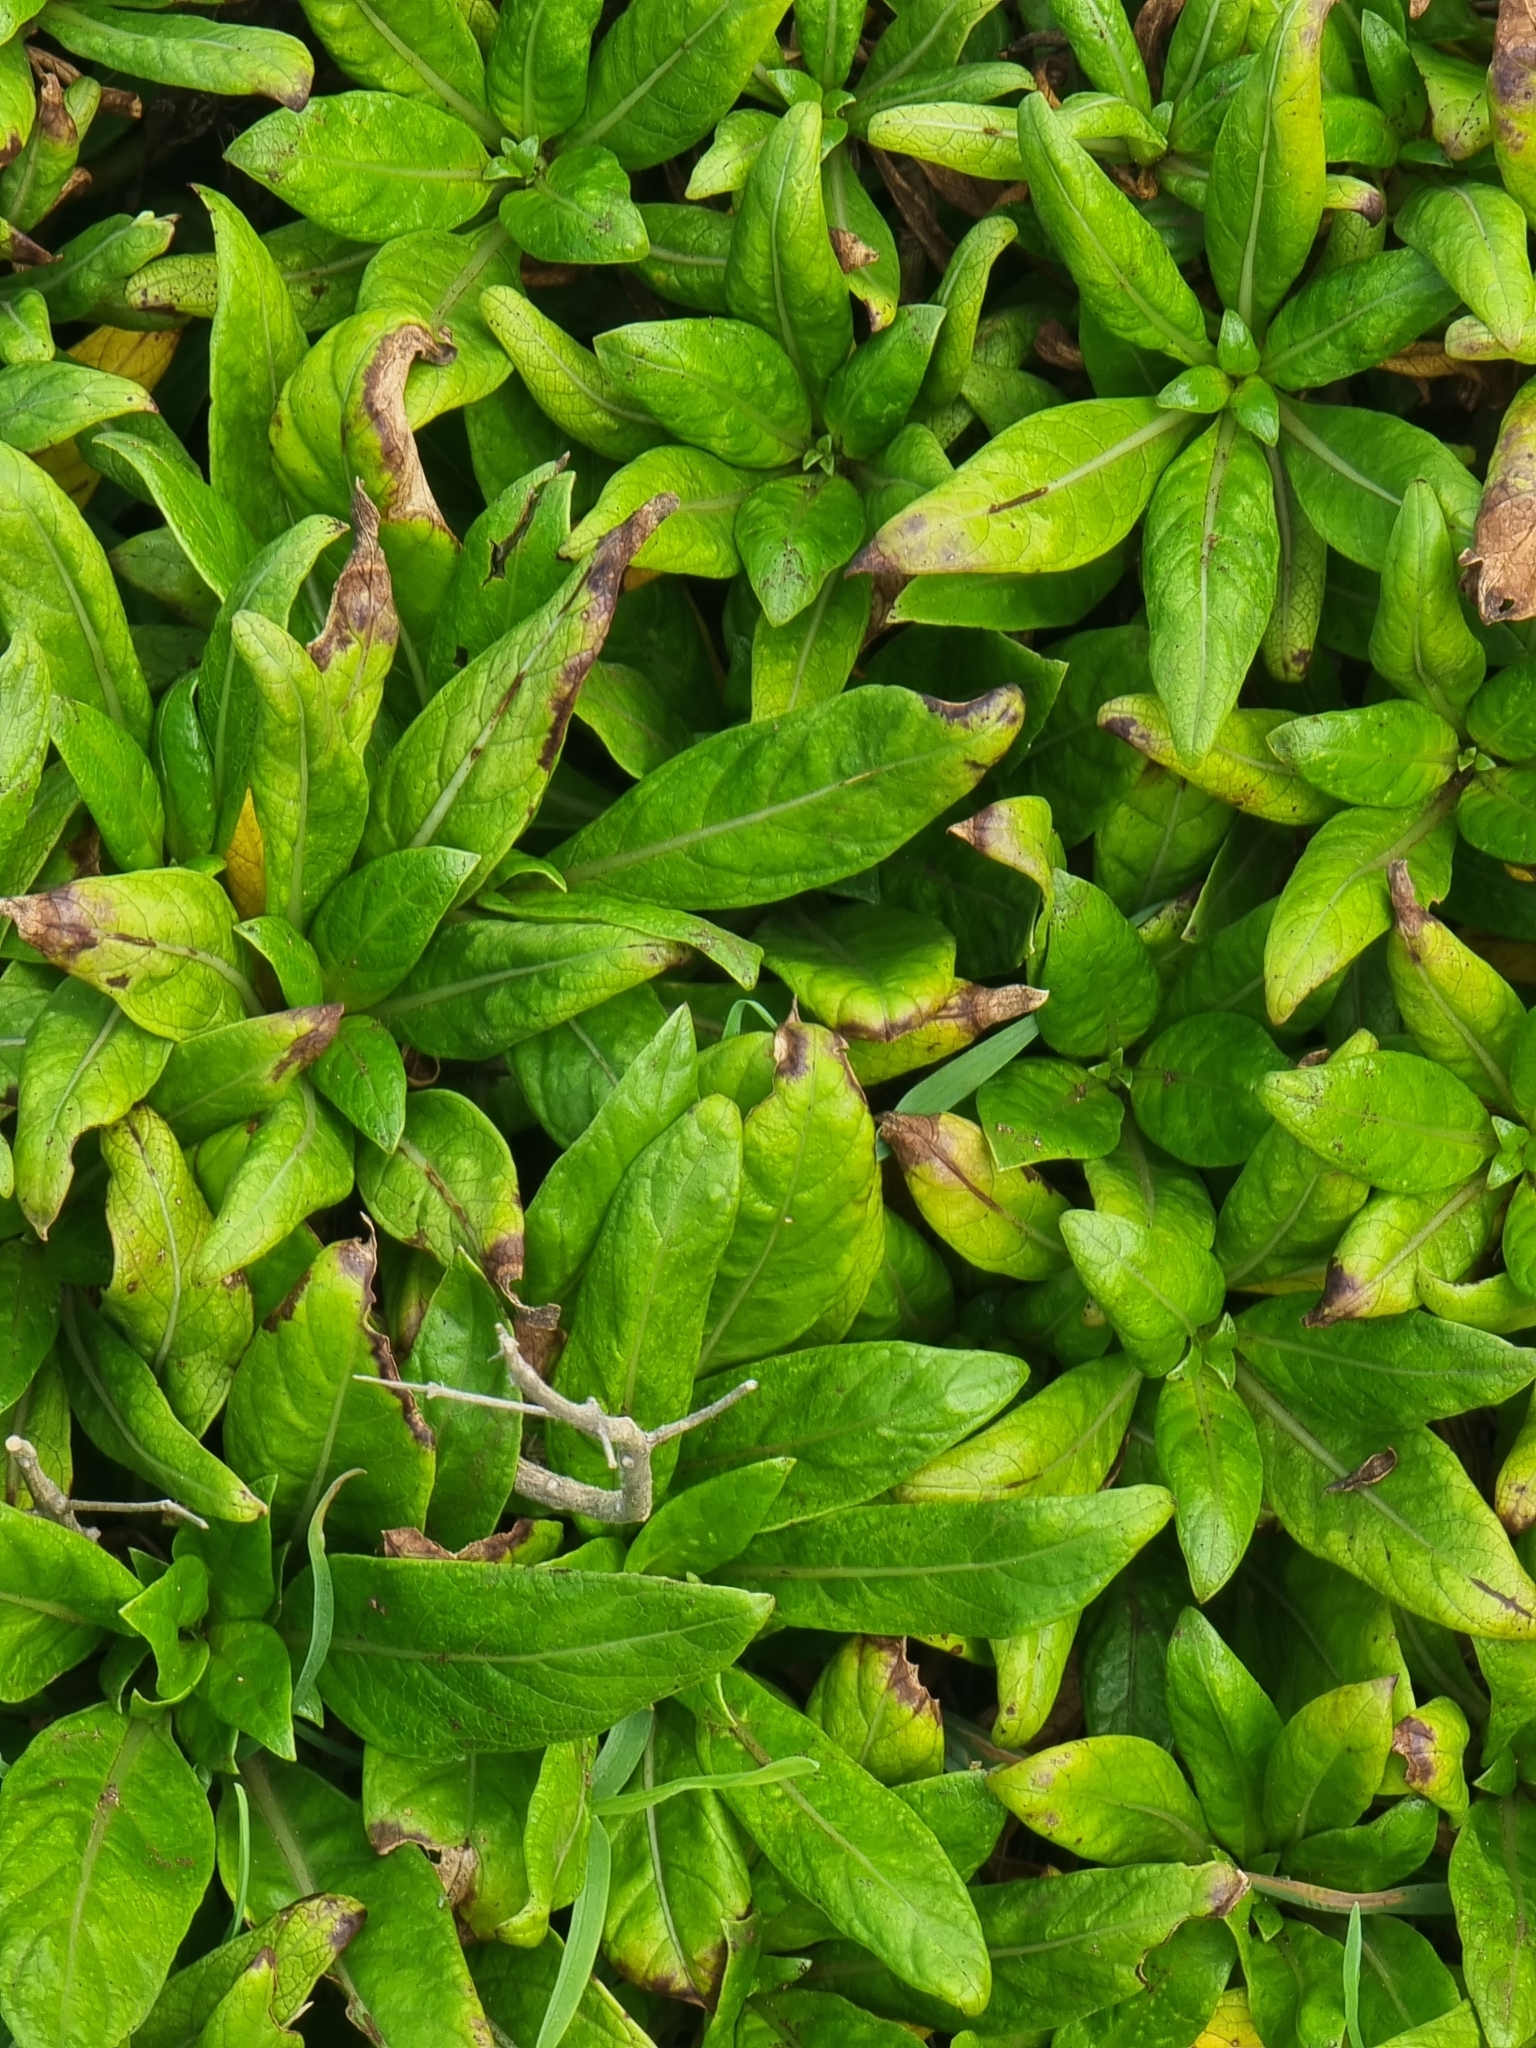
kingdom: Plantae
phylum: Tracheophyta
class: Magnoliopsida
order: Gentianales
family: Rubiaceae
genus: Phyllis
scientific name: Phyllis nobla
